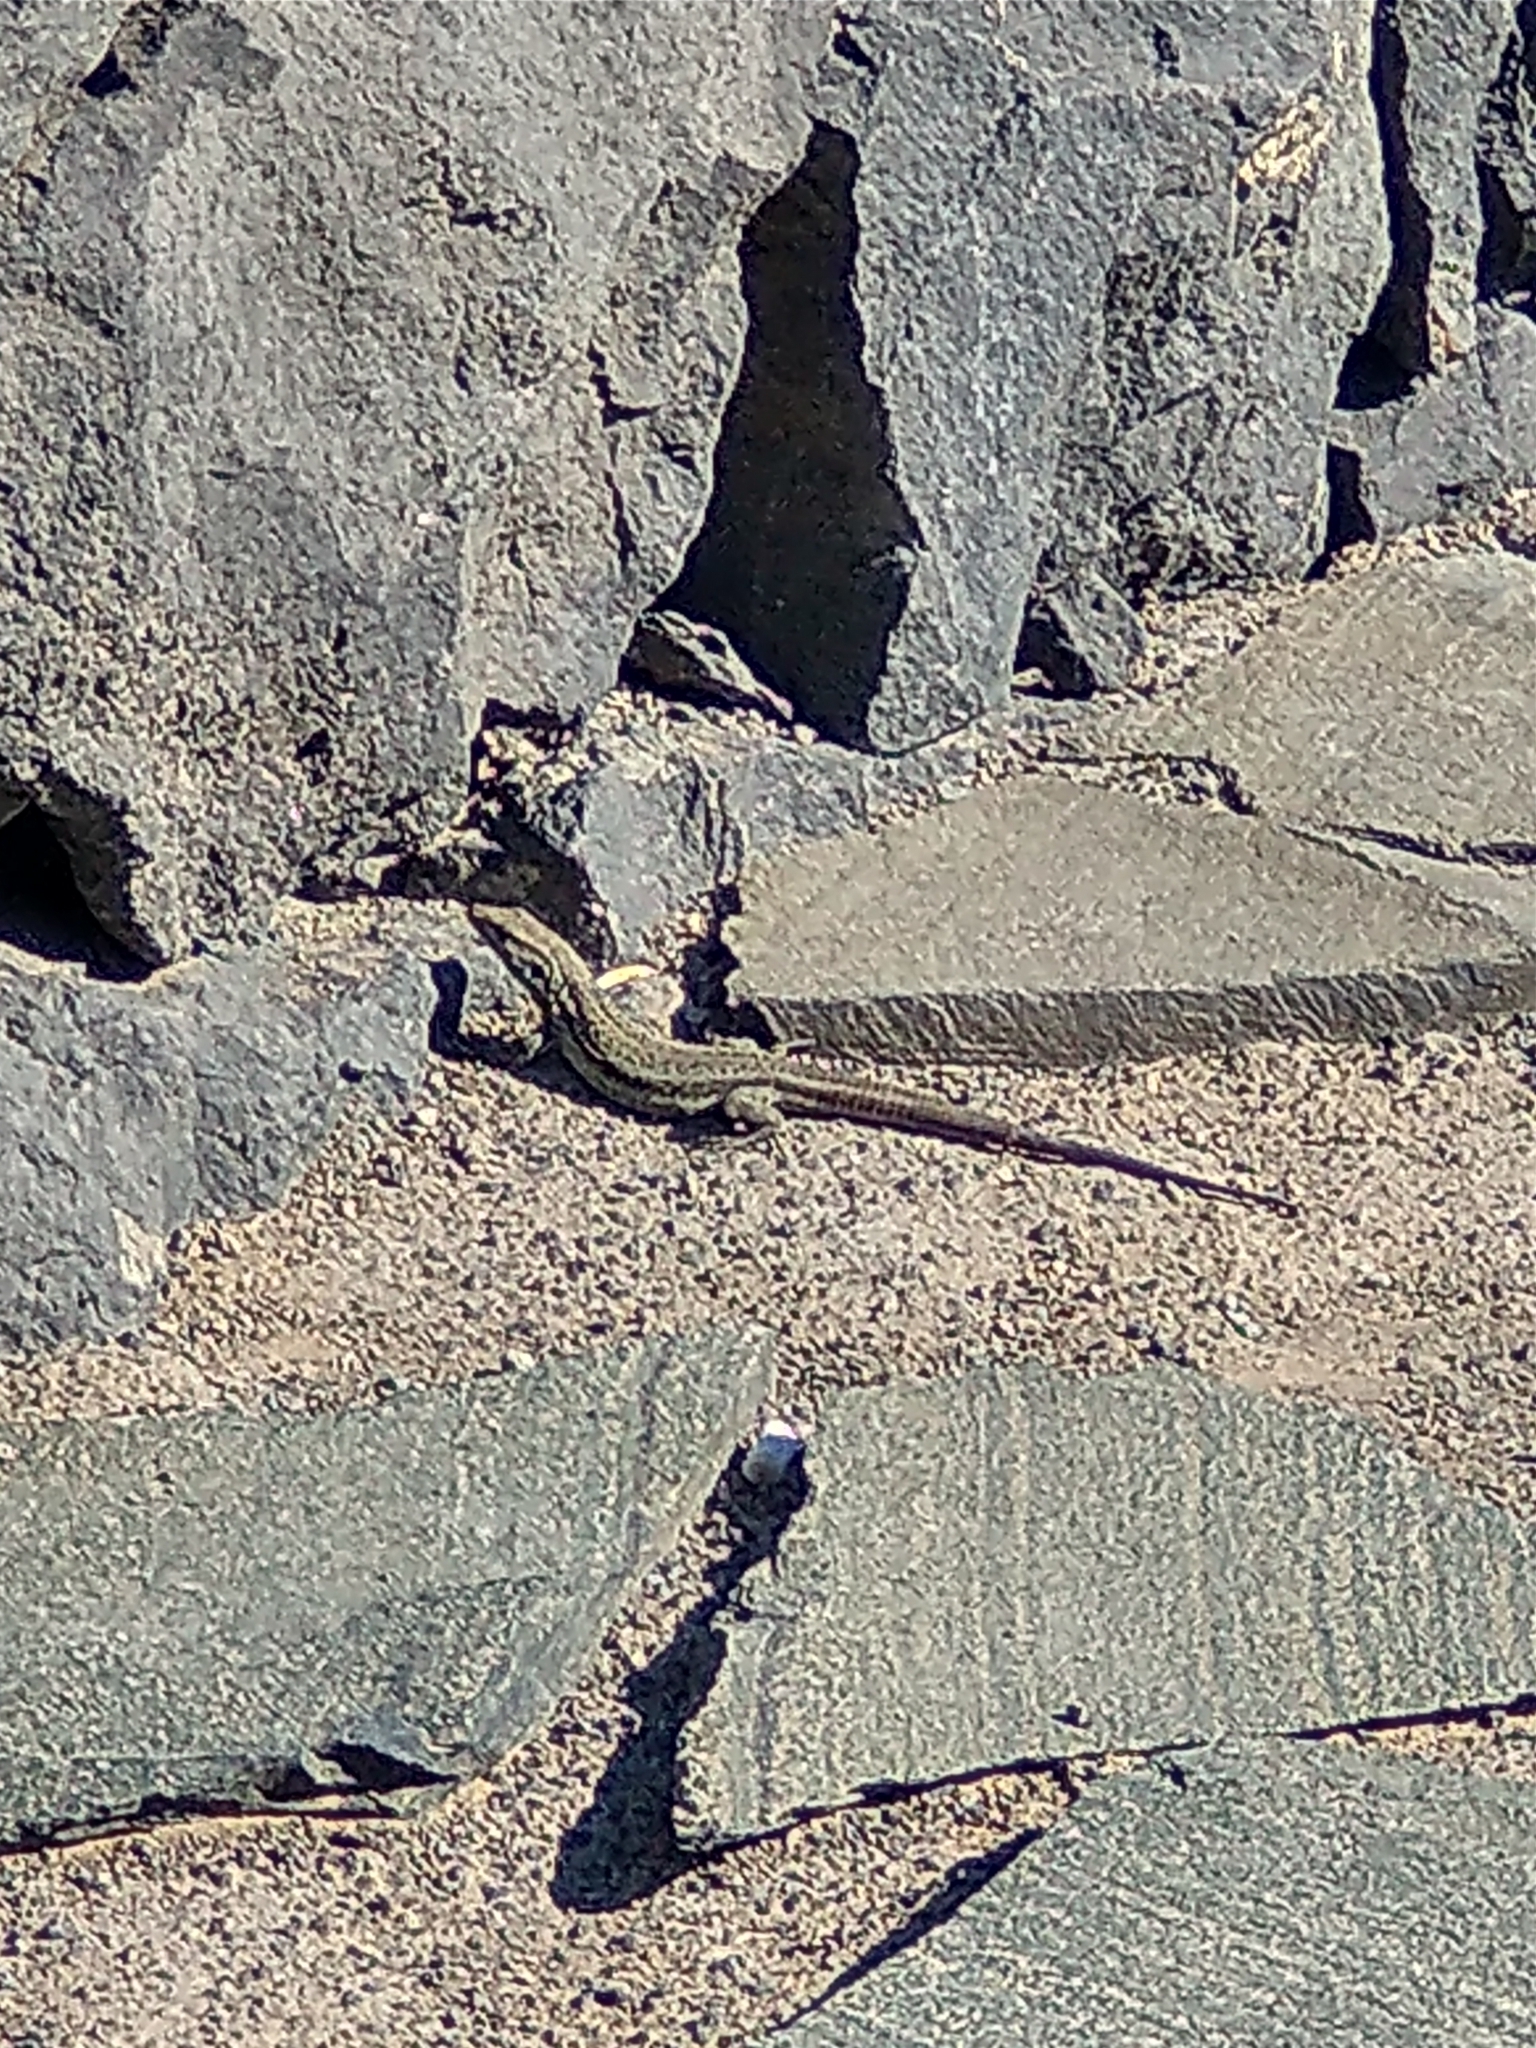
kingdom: Animalia
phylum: Chordata
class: Squamata
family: Lacertidae
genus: Gallotia
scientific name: Gallotia galloti
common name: Gallot's lizard
